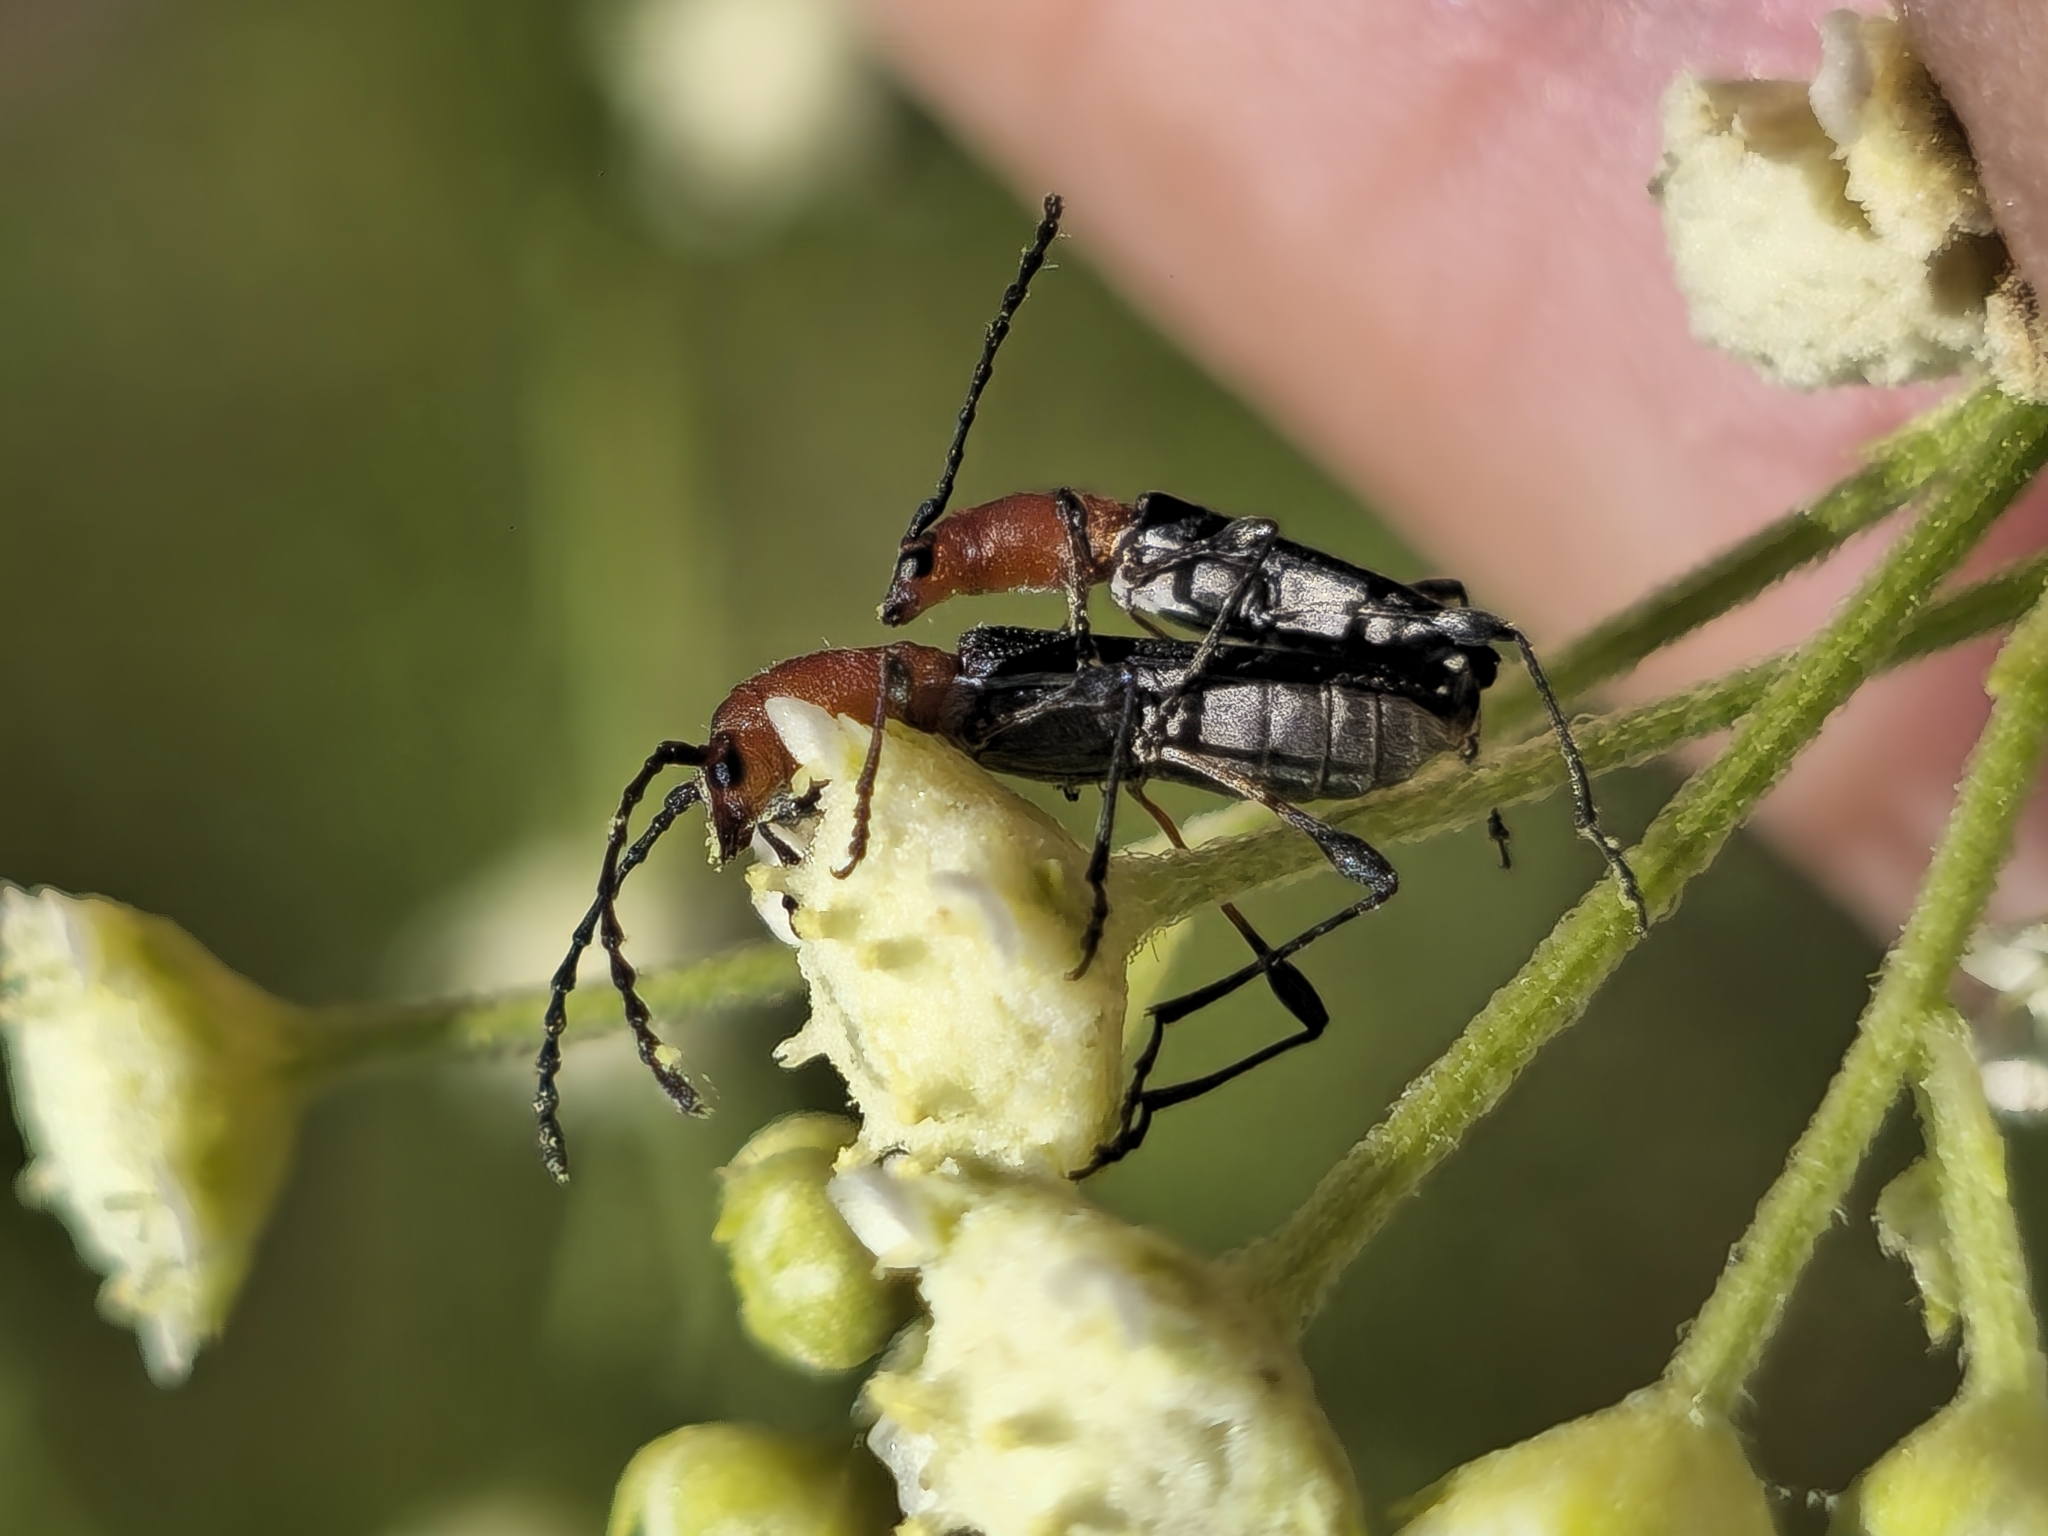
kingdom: Animalia
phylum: Arthropoda
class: Insecta
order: Coleoptera
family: Cerambycidae
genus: Dihammaphora
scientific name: Dihammaphora bruchi
